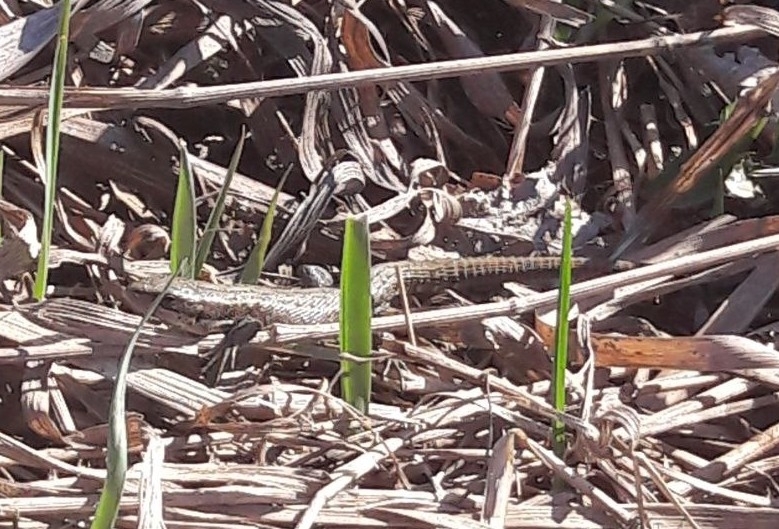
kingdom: Animalia
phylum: Chordata
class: Squamata
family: Lacertidae
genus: Zootoca
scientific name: Zootoca vivipara
